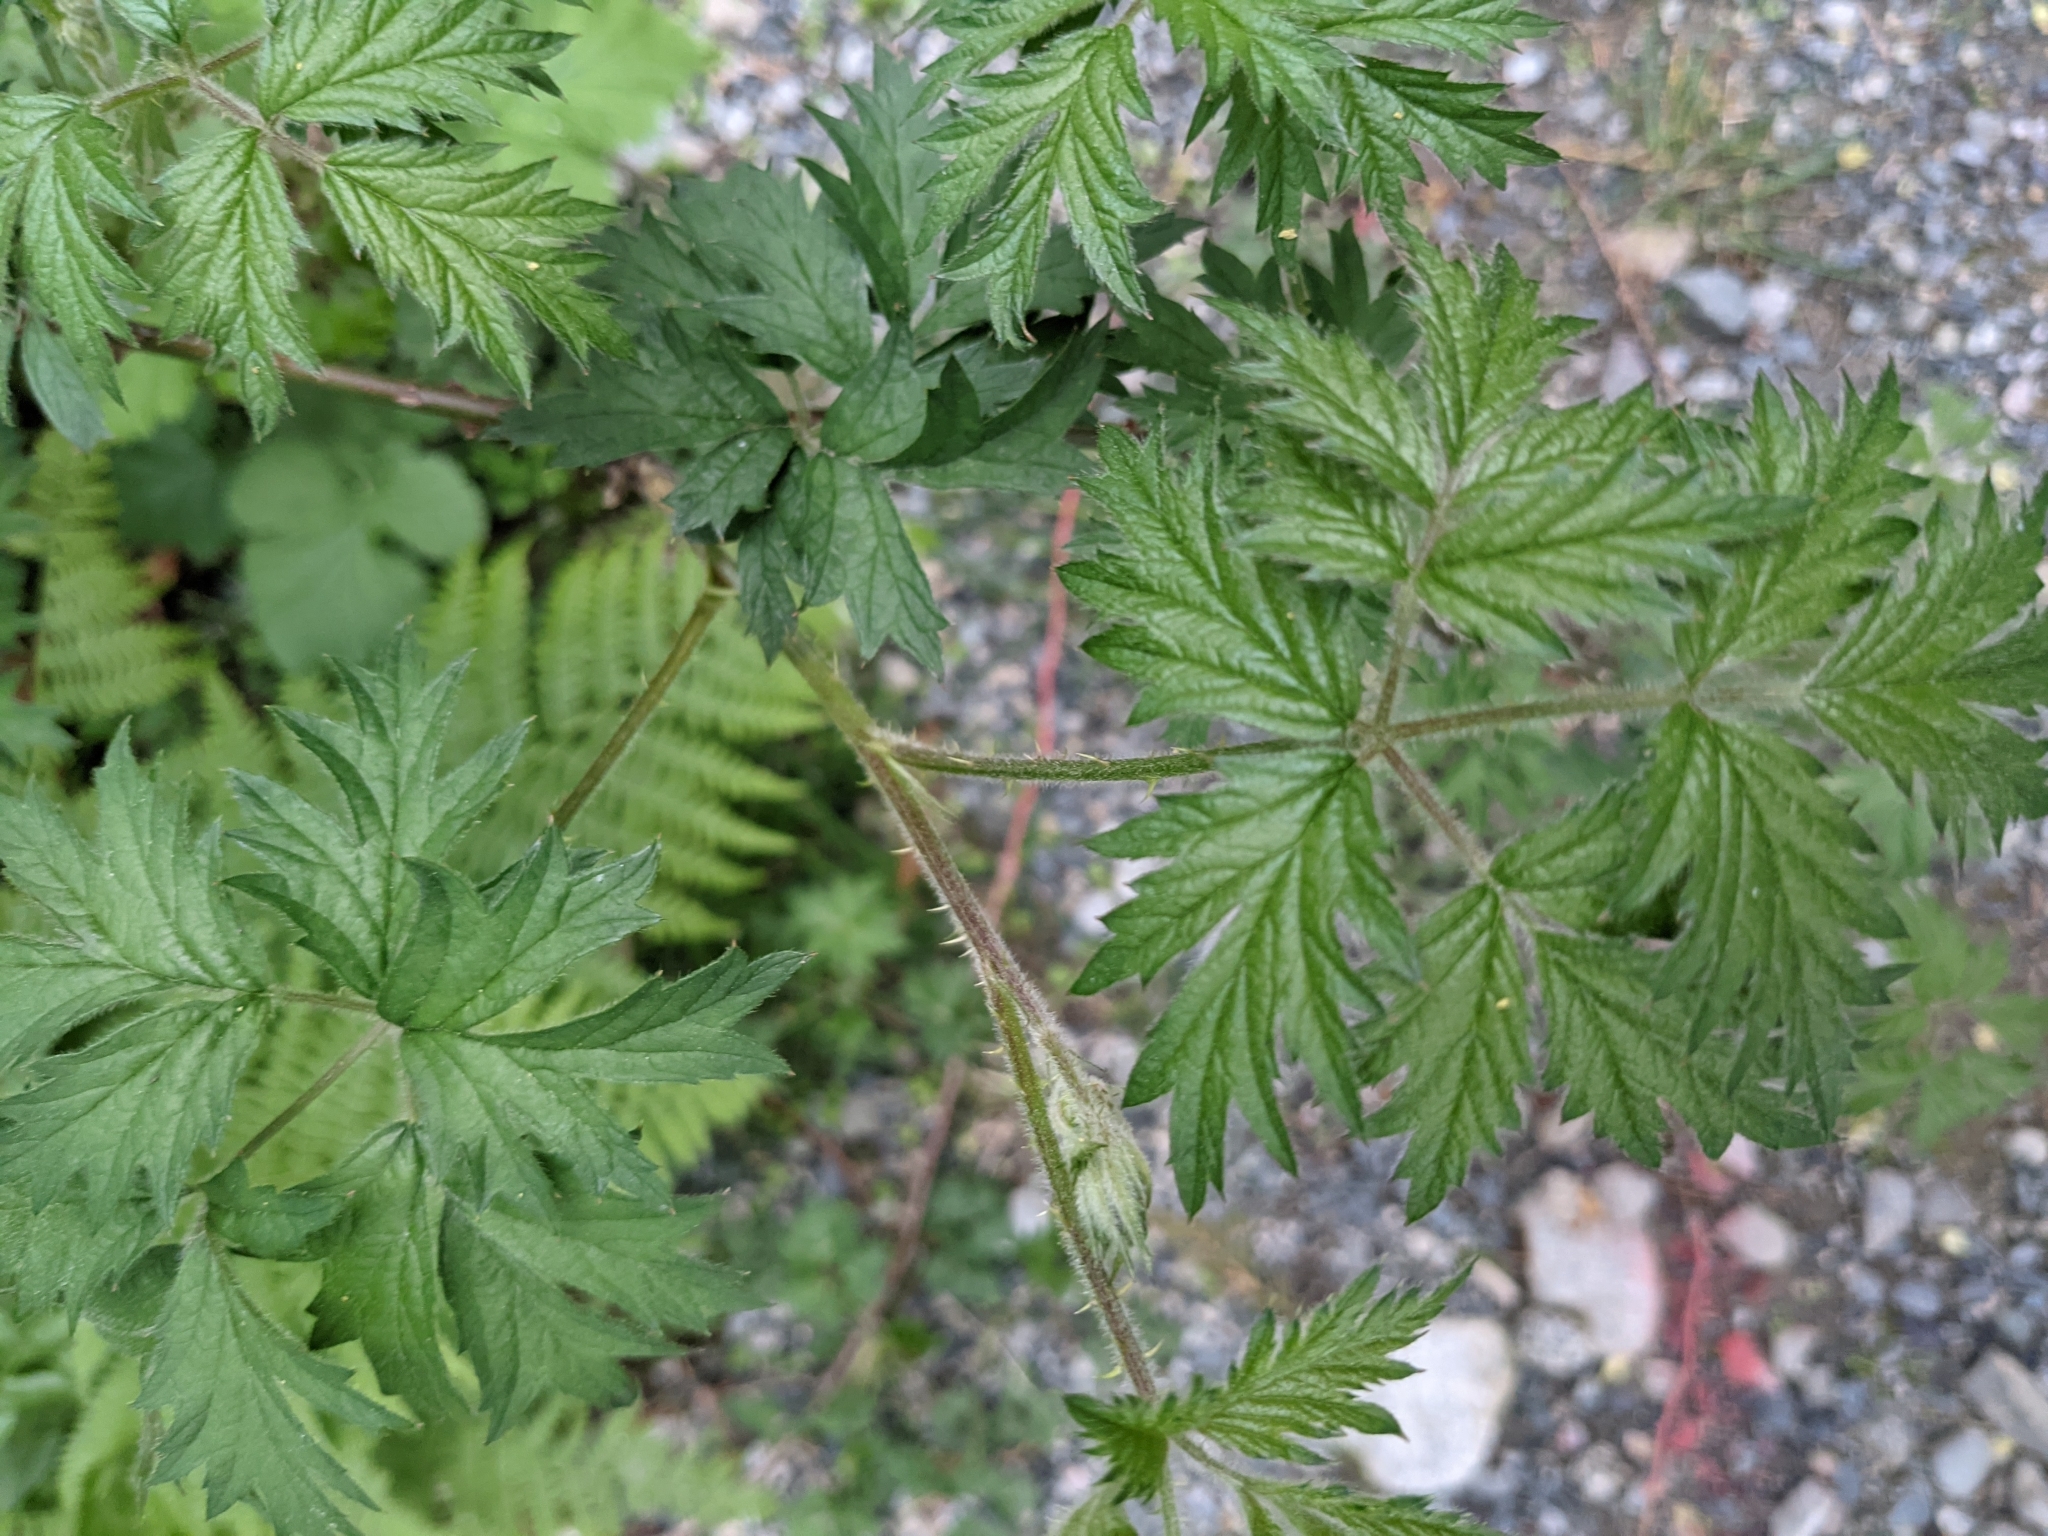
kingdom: Plantae
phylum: Tracheophyta
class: Magnoliopsida
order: Rosales
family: Rosaceae
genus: Rubus
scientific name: Rubus laciniatus
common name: Evergreen blackberry
